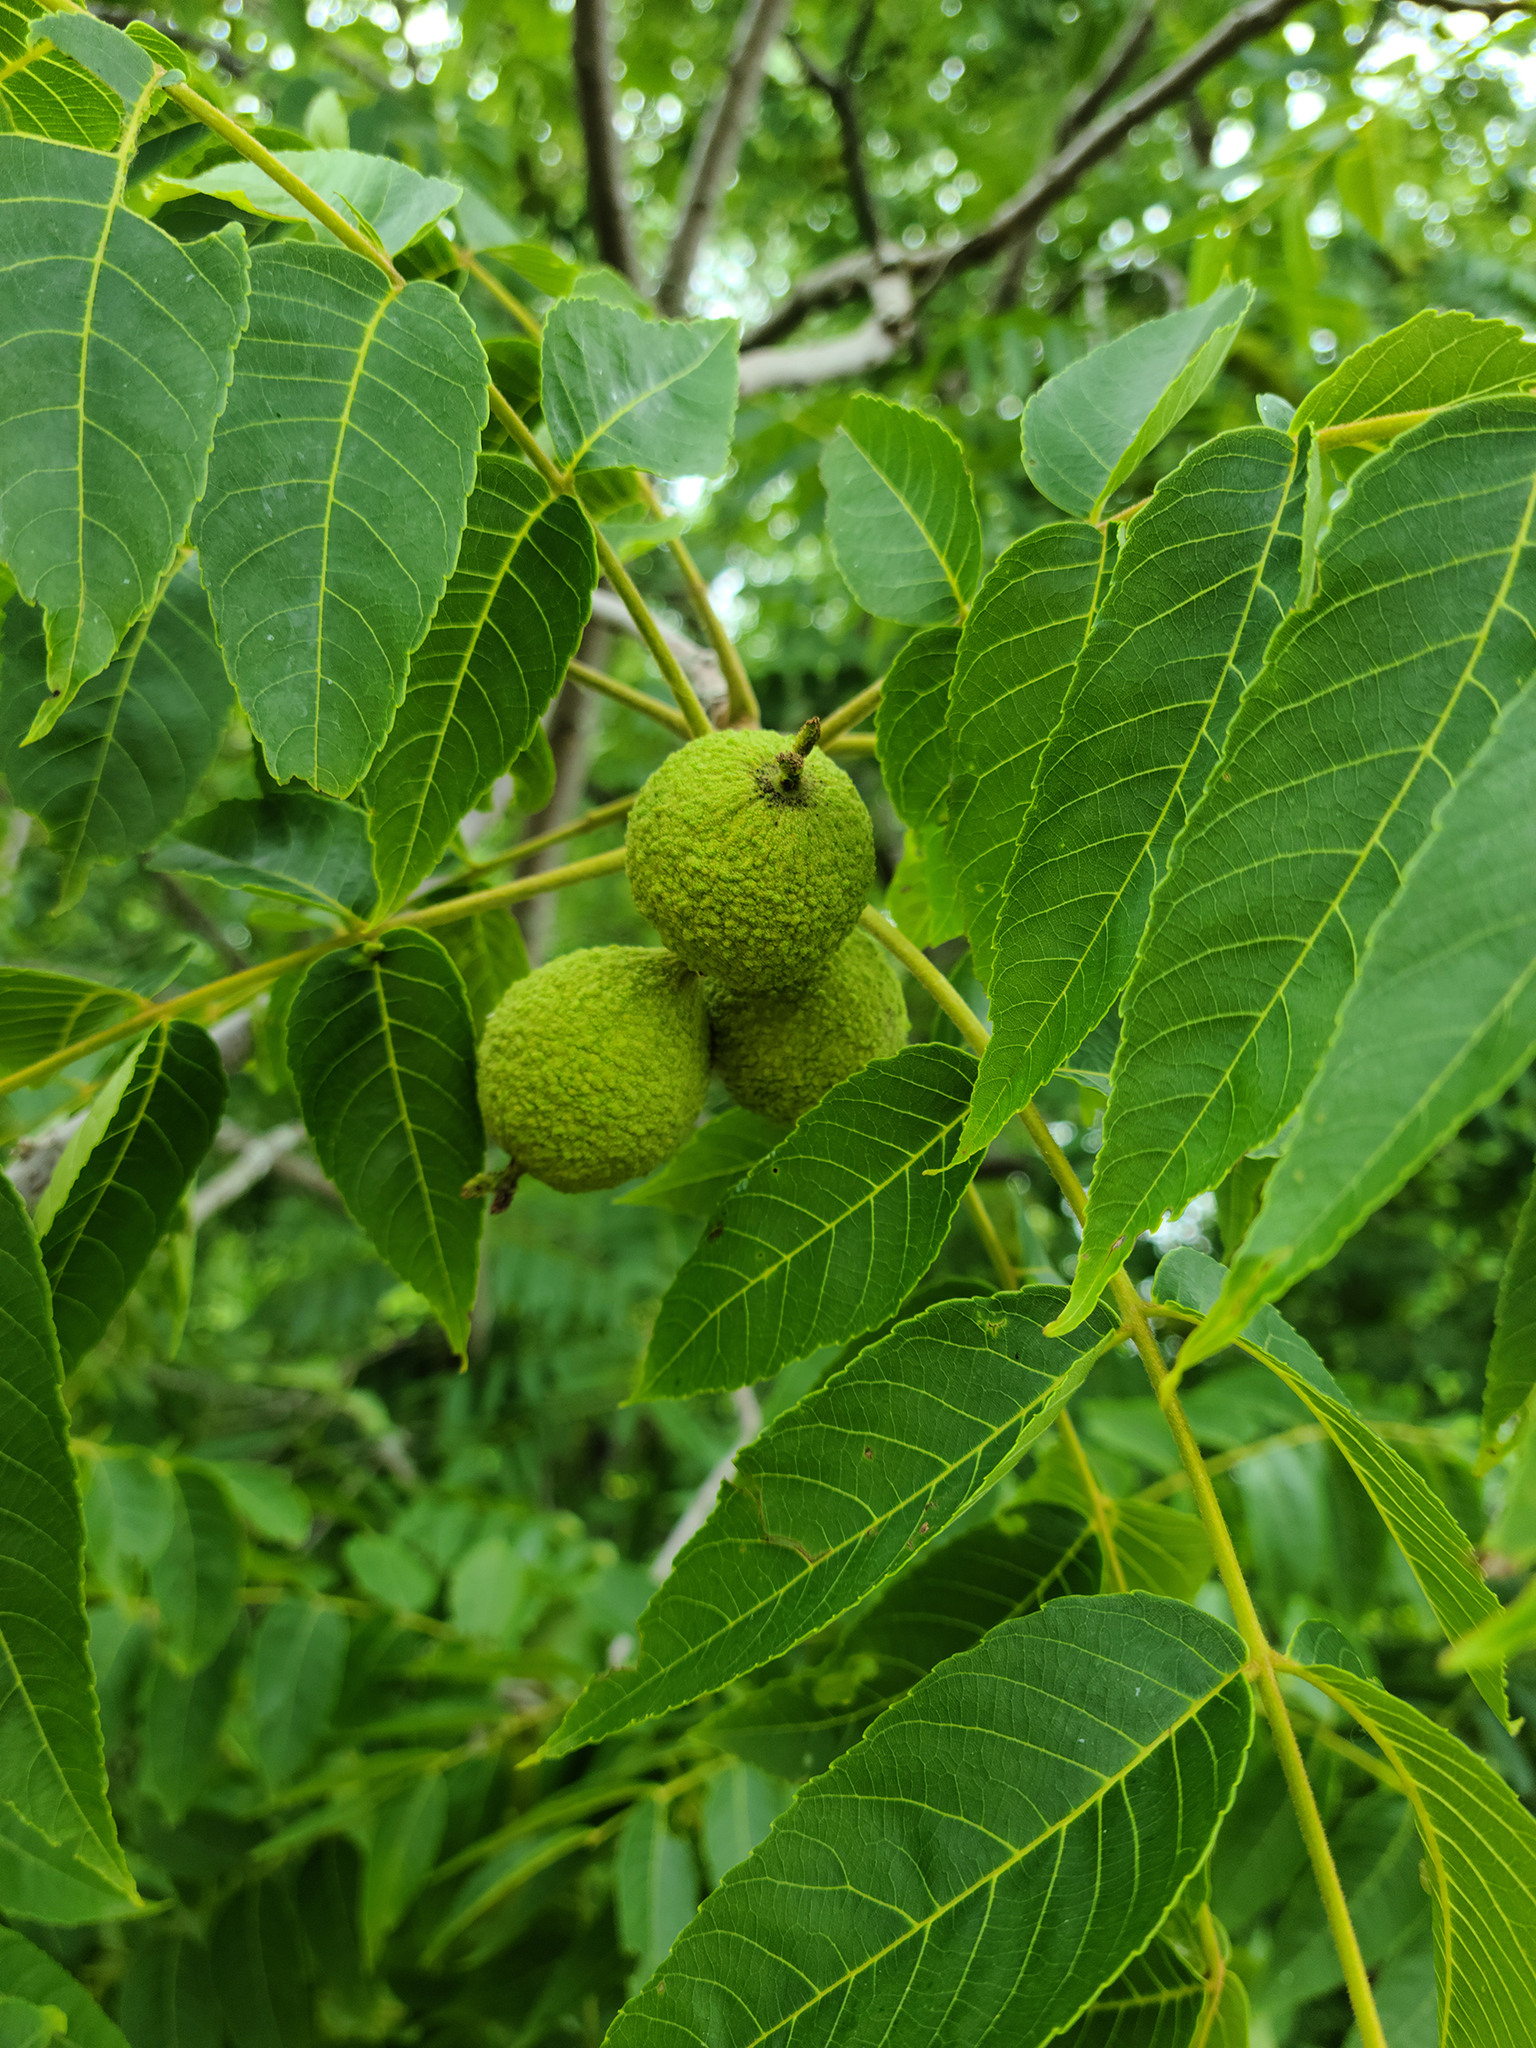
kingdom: Plantae
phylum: Tracheophyta
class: Magnoliopsida
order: Fagales
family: Juglandaceae
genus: Juglans
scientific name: Juglans nigra
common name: Black walnut
